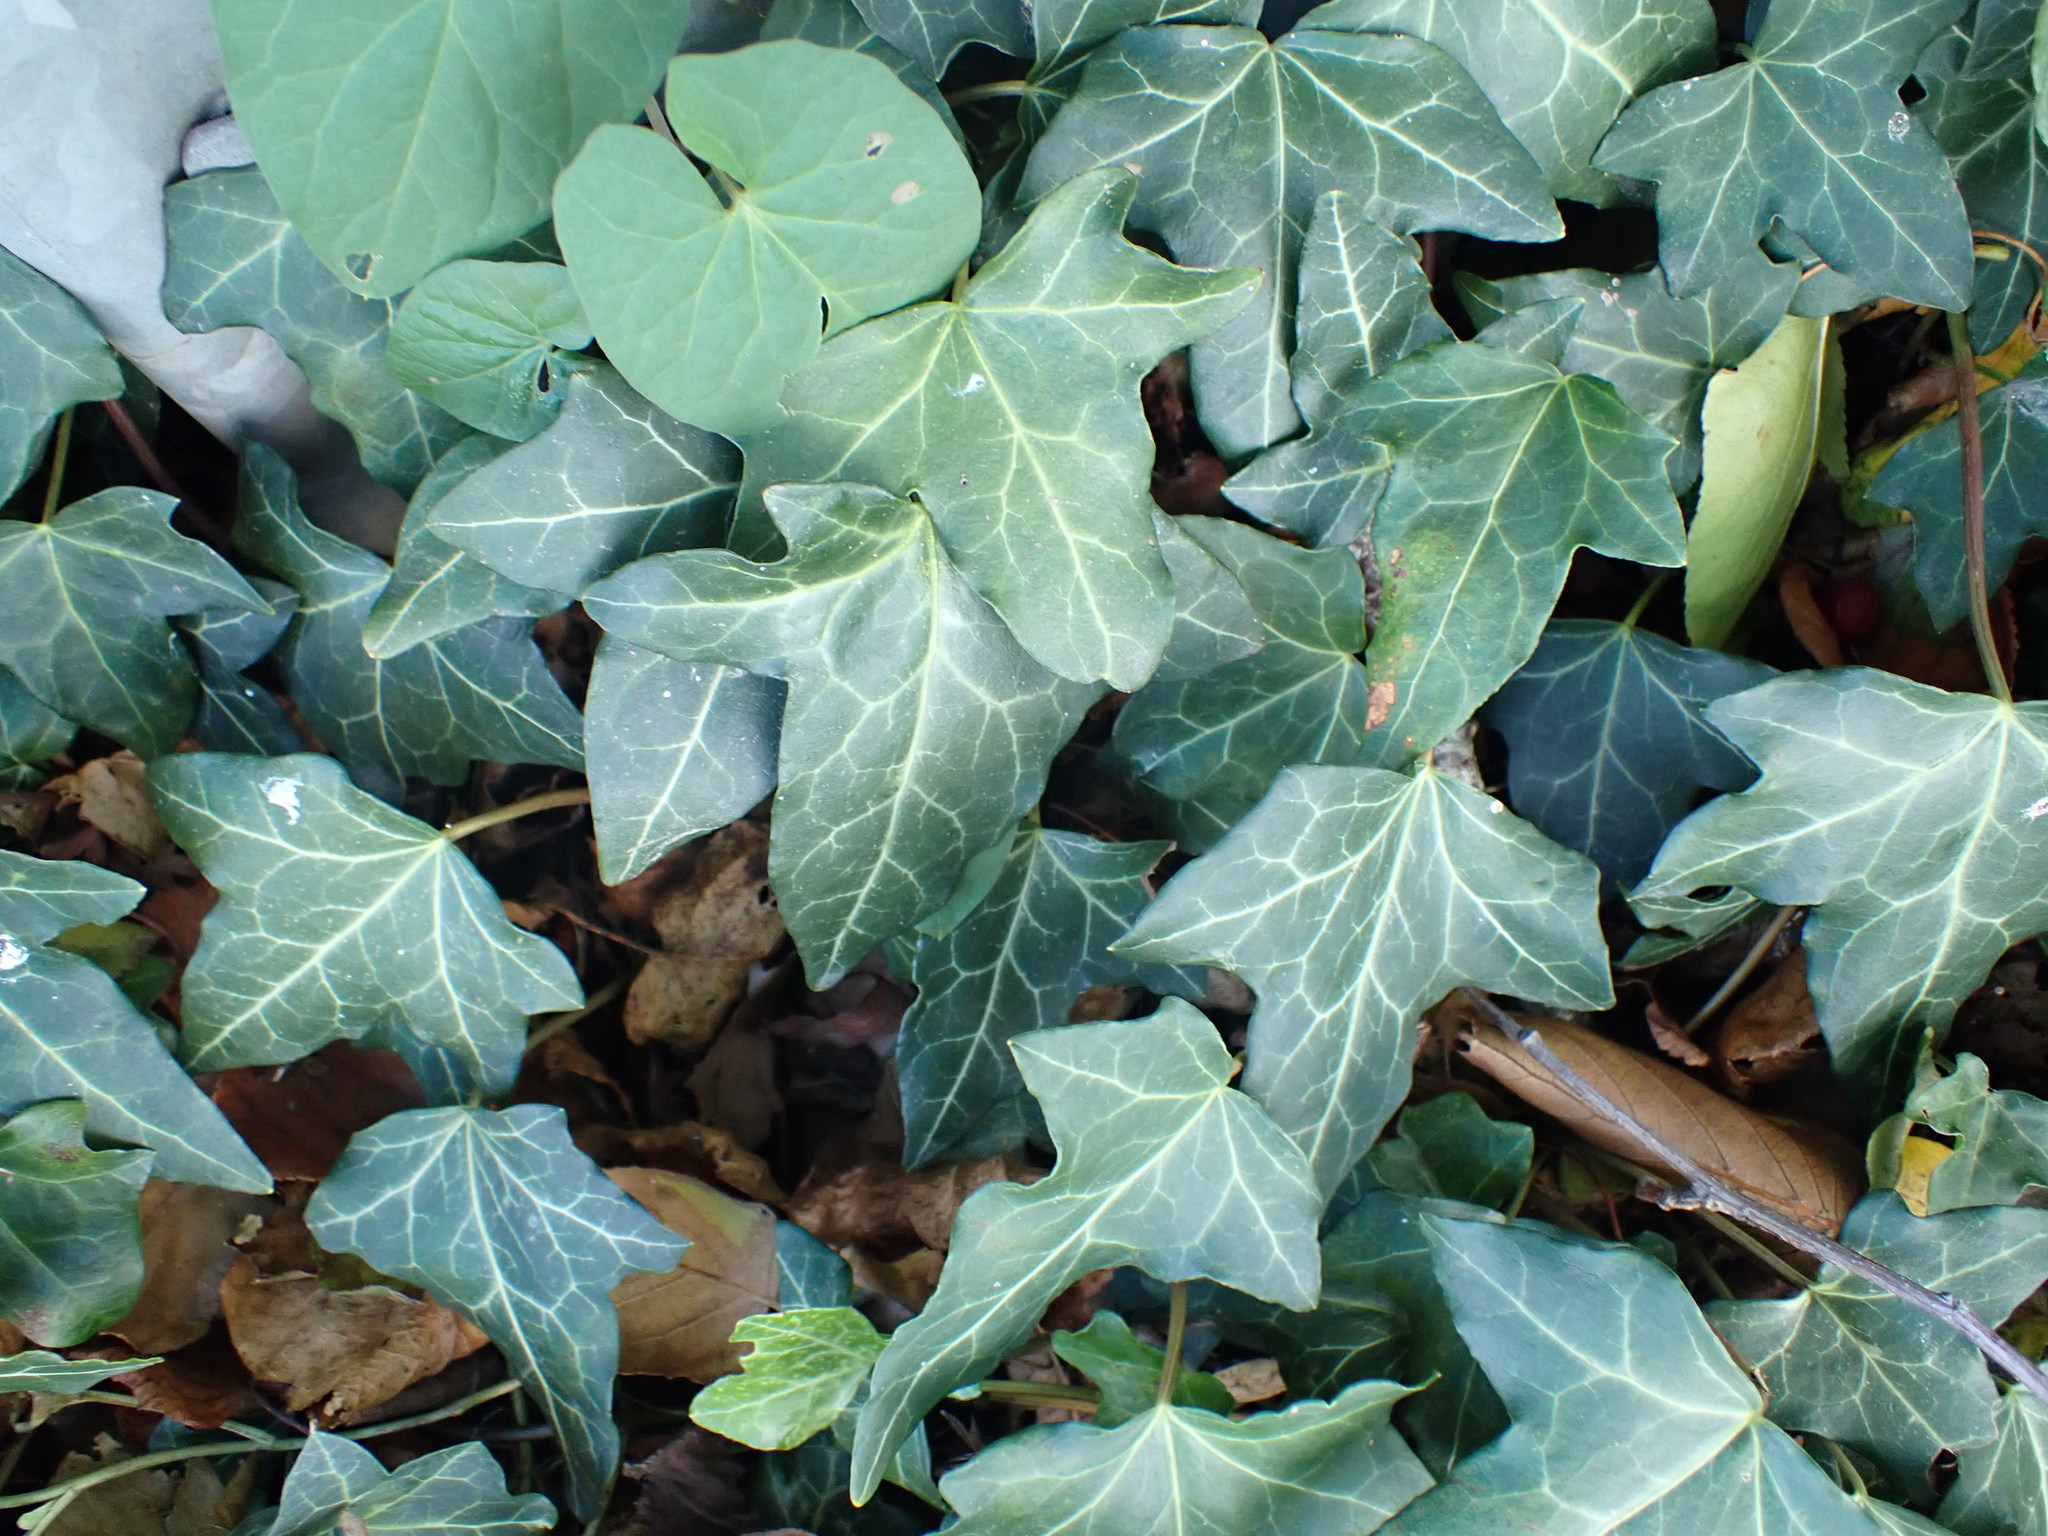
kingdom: Plantae
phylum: Tracheophyta
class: Magnoliopsida
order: Apiales
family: Araliaceae
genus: Hedera
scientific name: Hedera helix
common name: Ivy
